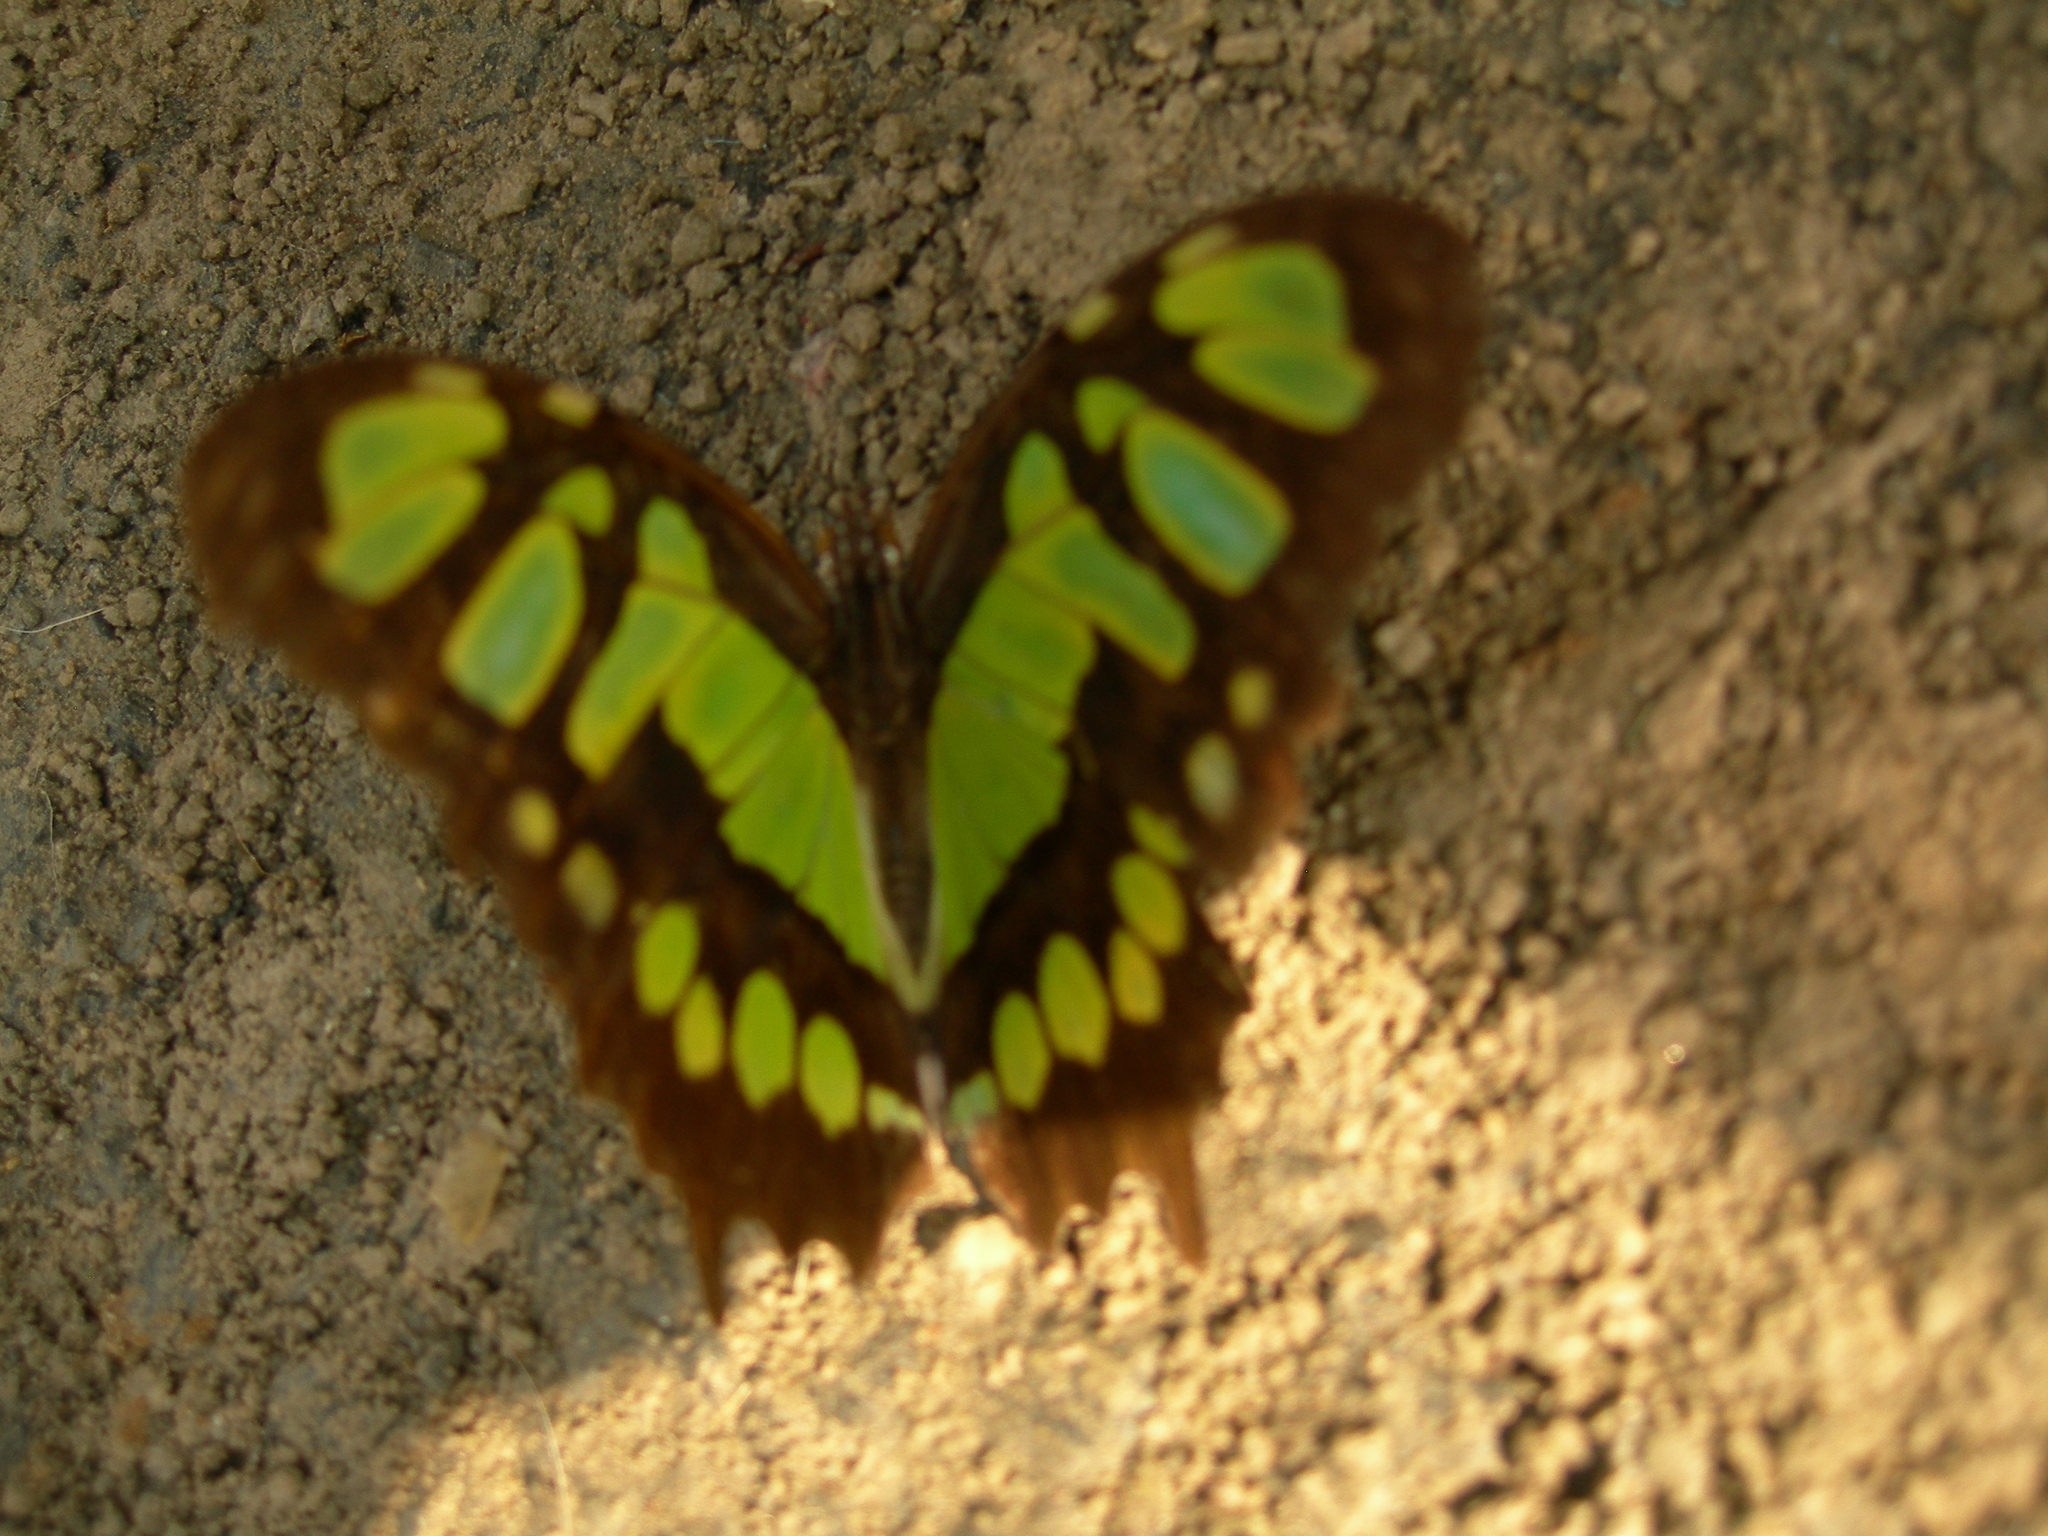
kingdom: Animalia
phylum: Arthropoda
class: Insecta
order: Lepidoptera
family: Nymphalidae
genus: Siproeta
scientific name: Siproeta stelenes
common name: Malachite
